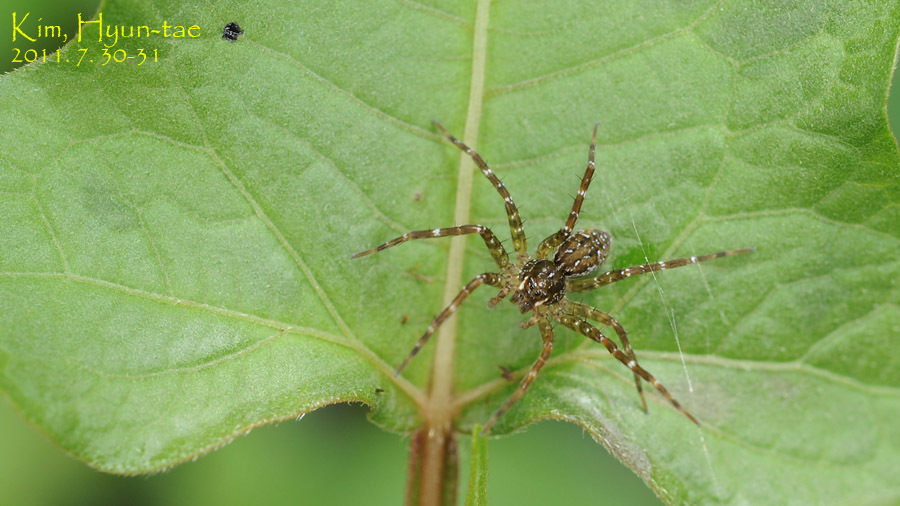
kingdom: Animalia
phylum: Arthropoda
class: Arachnida
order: Araneae
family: Pisauridae
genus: Dolomedes
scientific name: Dolomedes raptor
